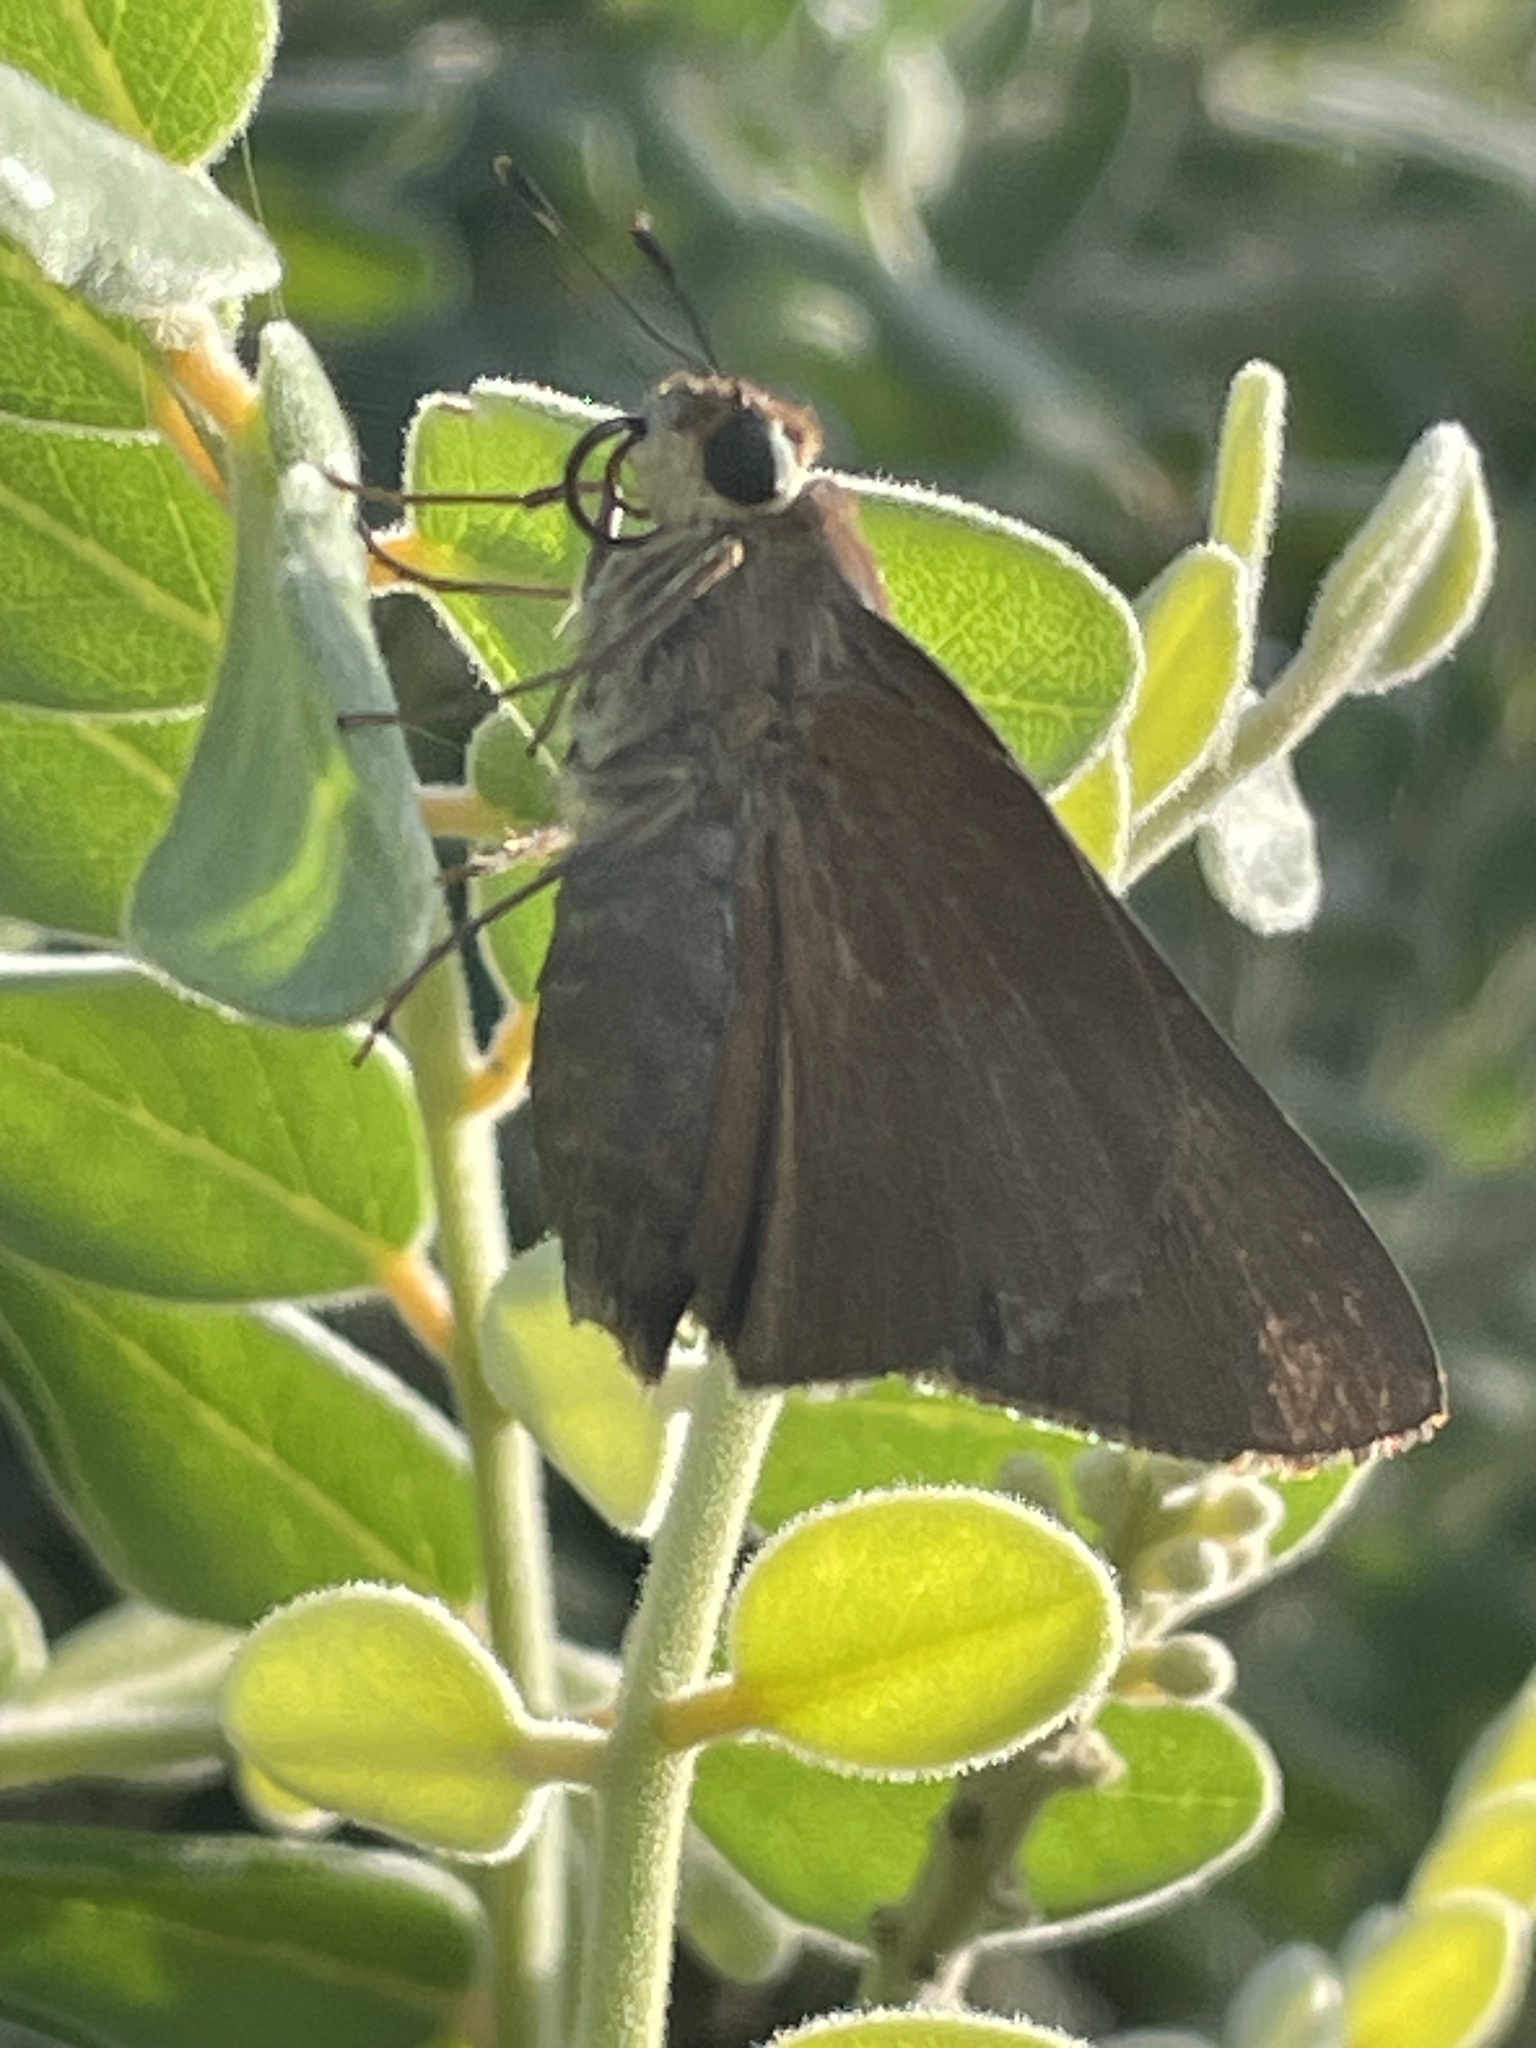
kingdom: Animalia
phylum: Arthropoda
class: Insecta
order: Lepidoptera
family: Hesperiidae
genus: Asbolis
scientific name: Asbolis capucinus
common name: Monk skipper
